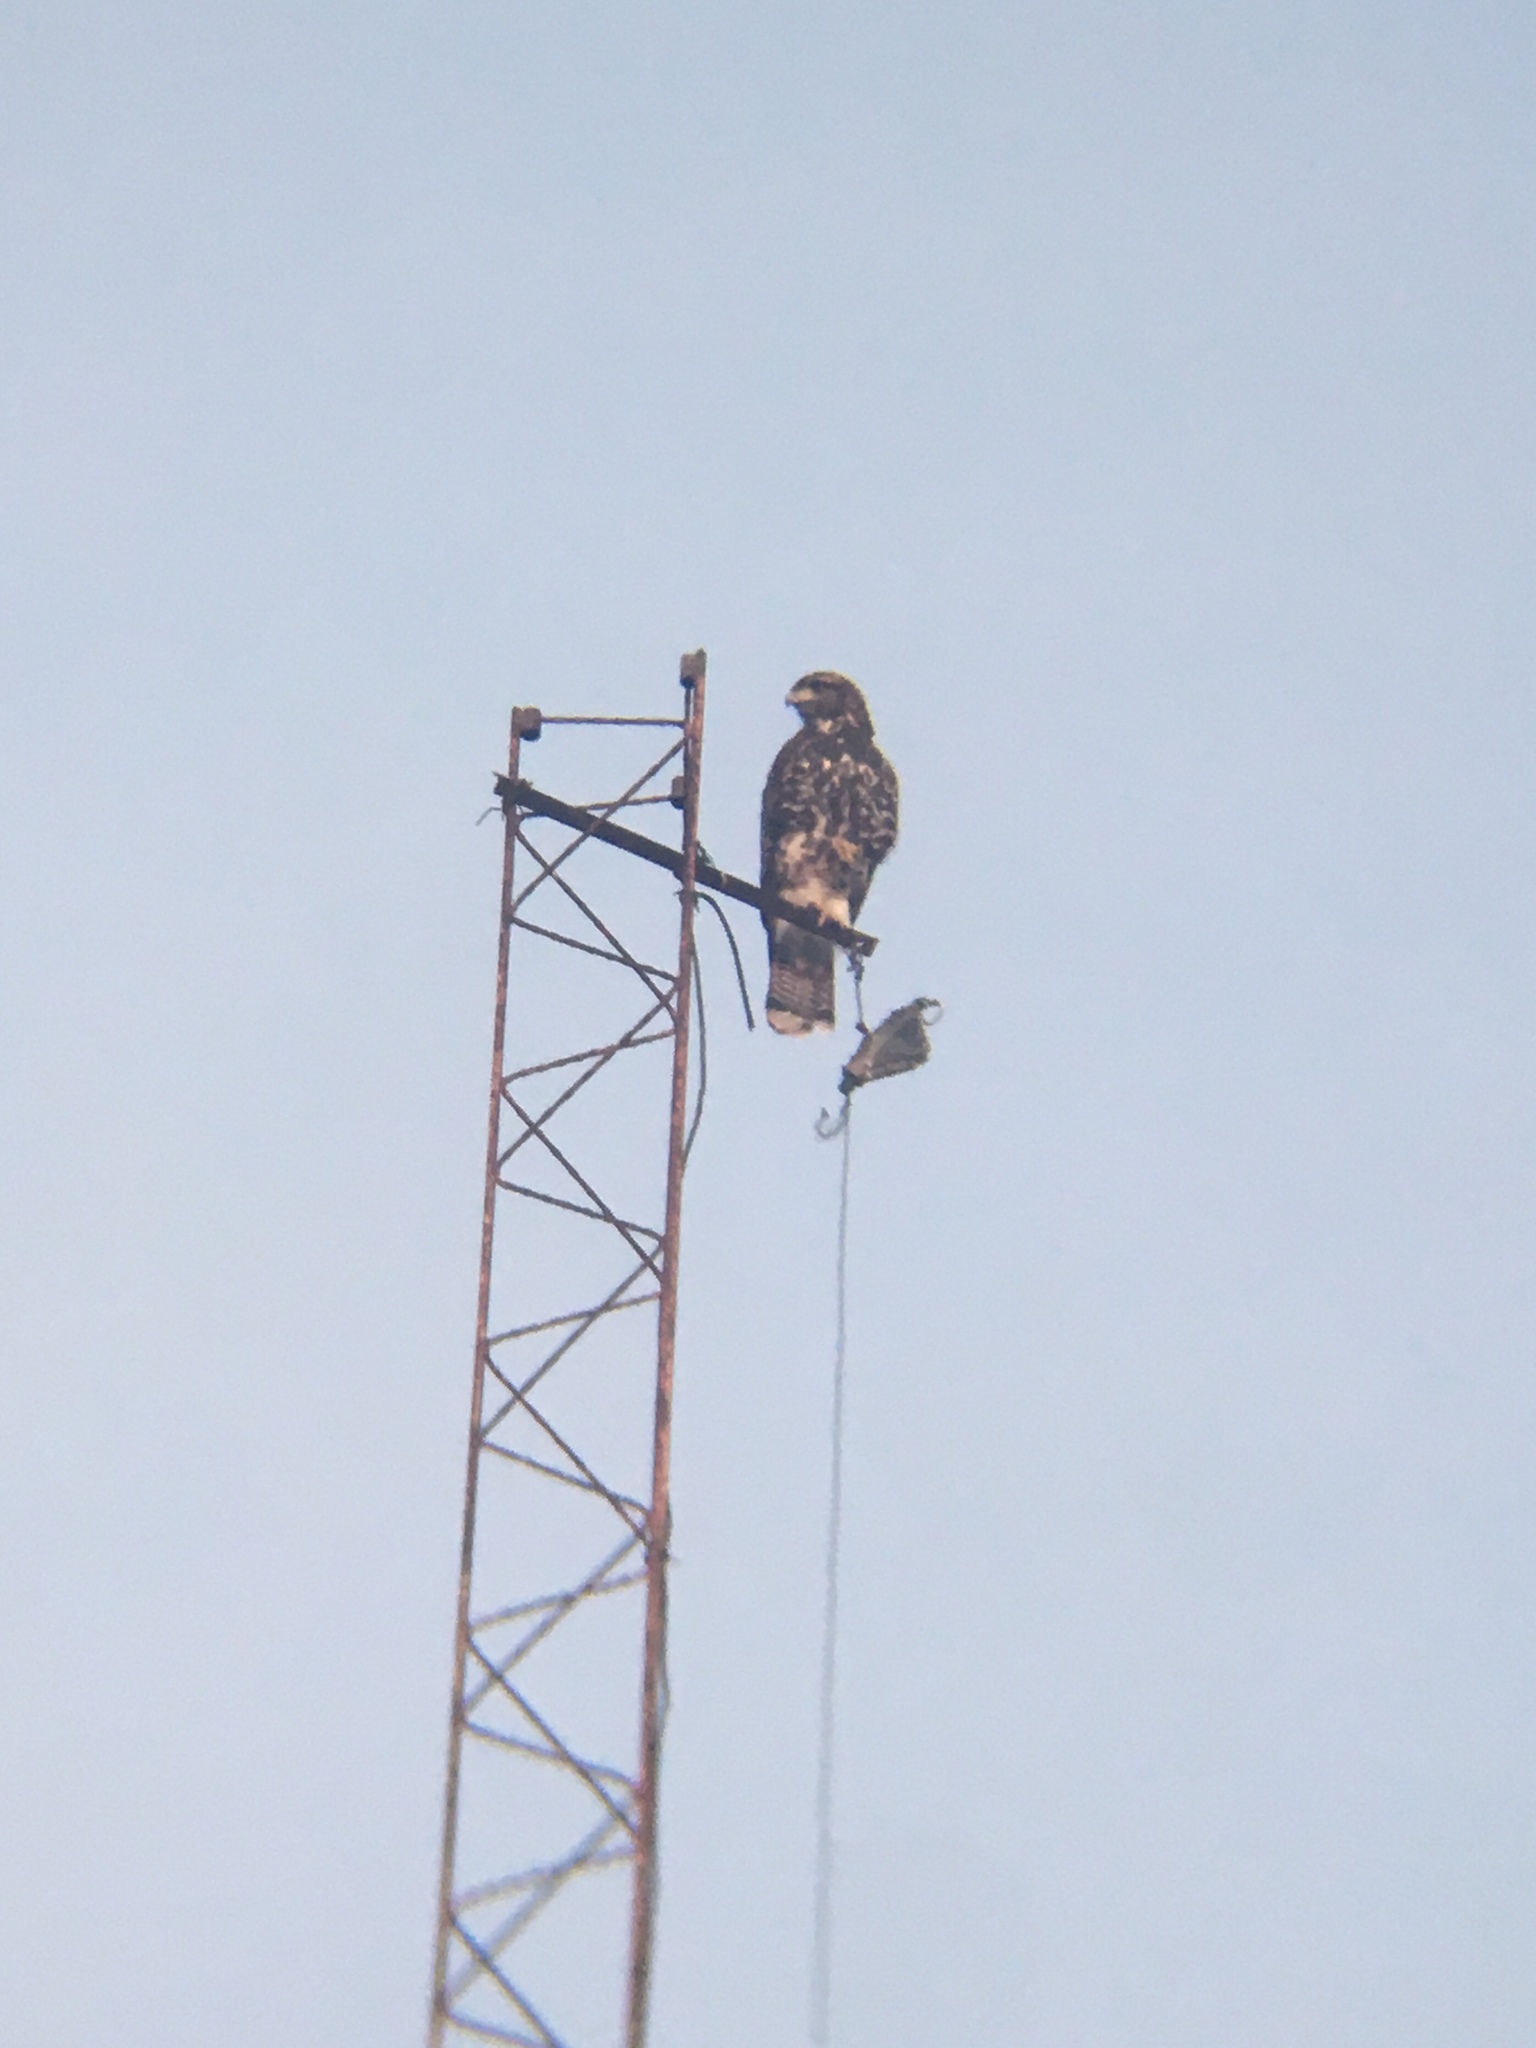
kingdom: Animalia
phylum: Chordata
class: Aves
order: Accipitriformes
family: Accipitridae
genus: Parabuteo
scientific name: Parabuteo unicinctus
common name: Harris's hawk
